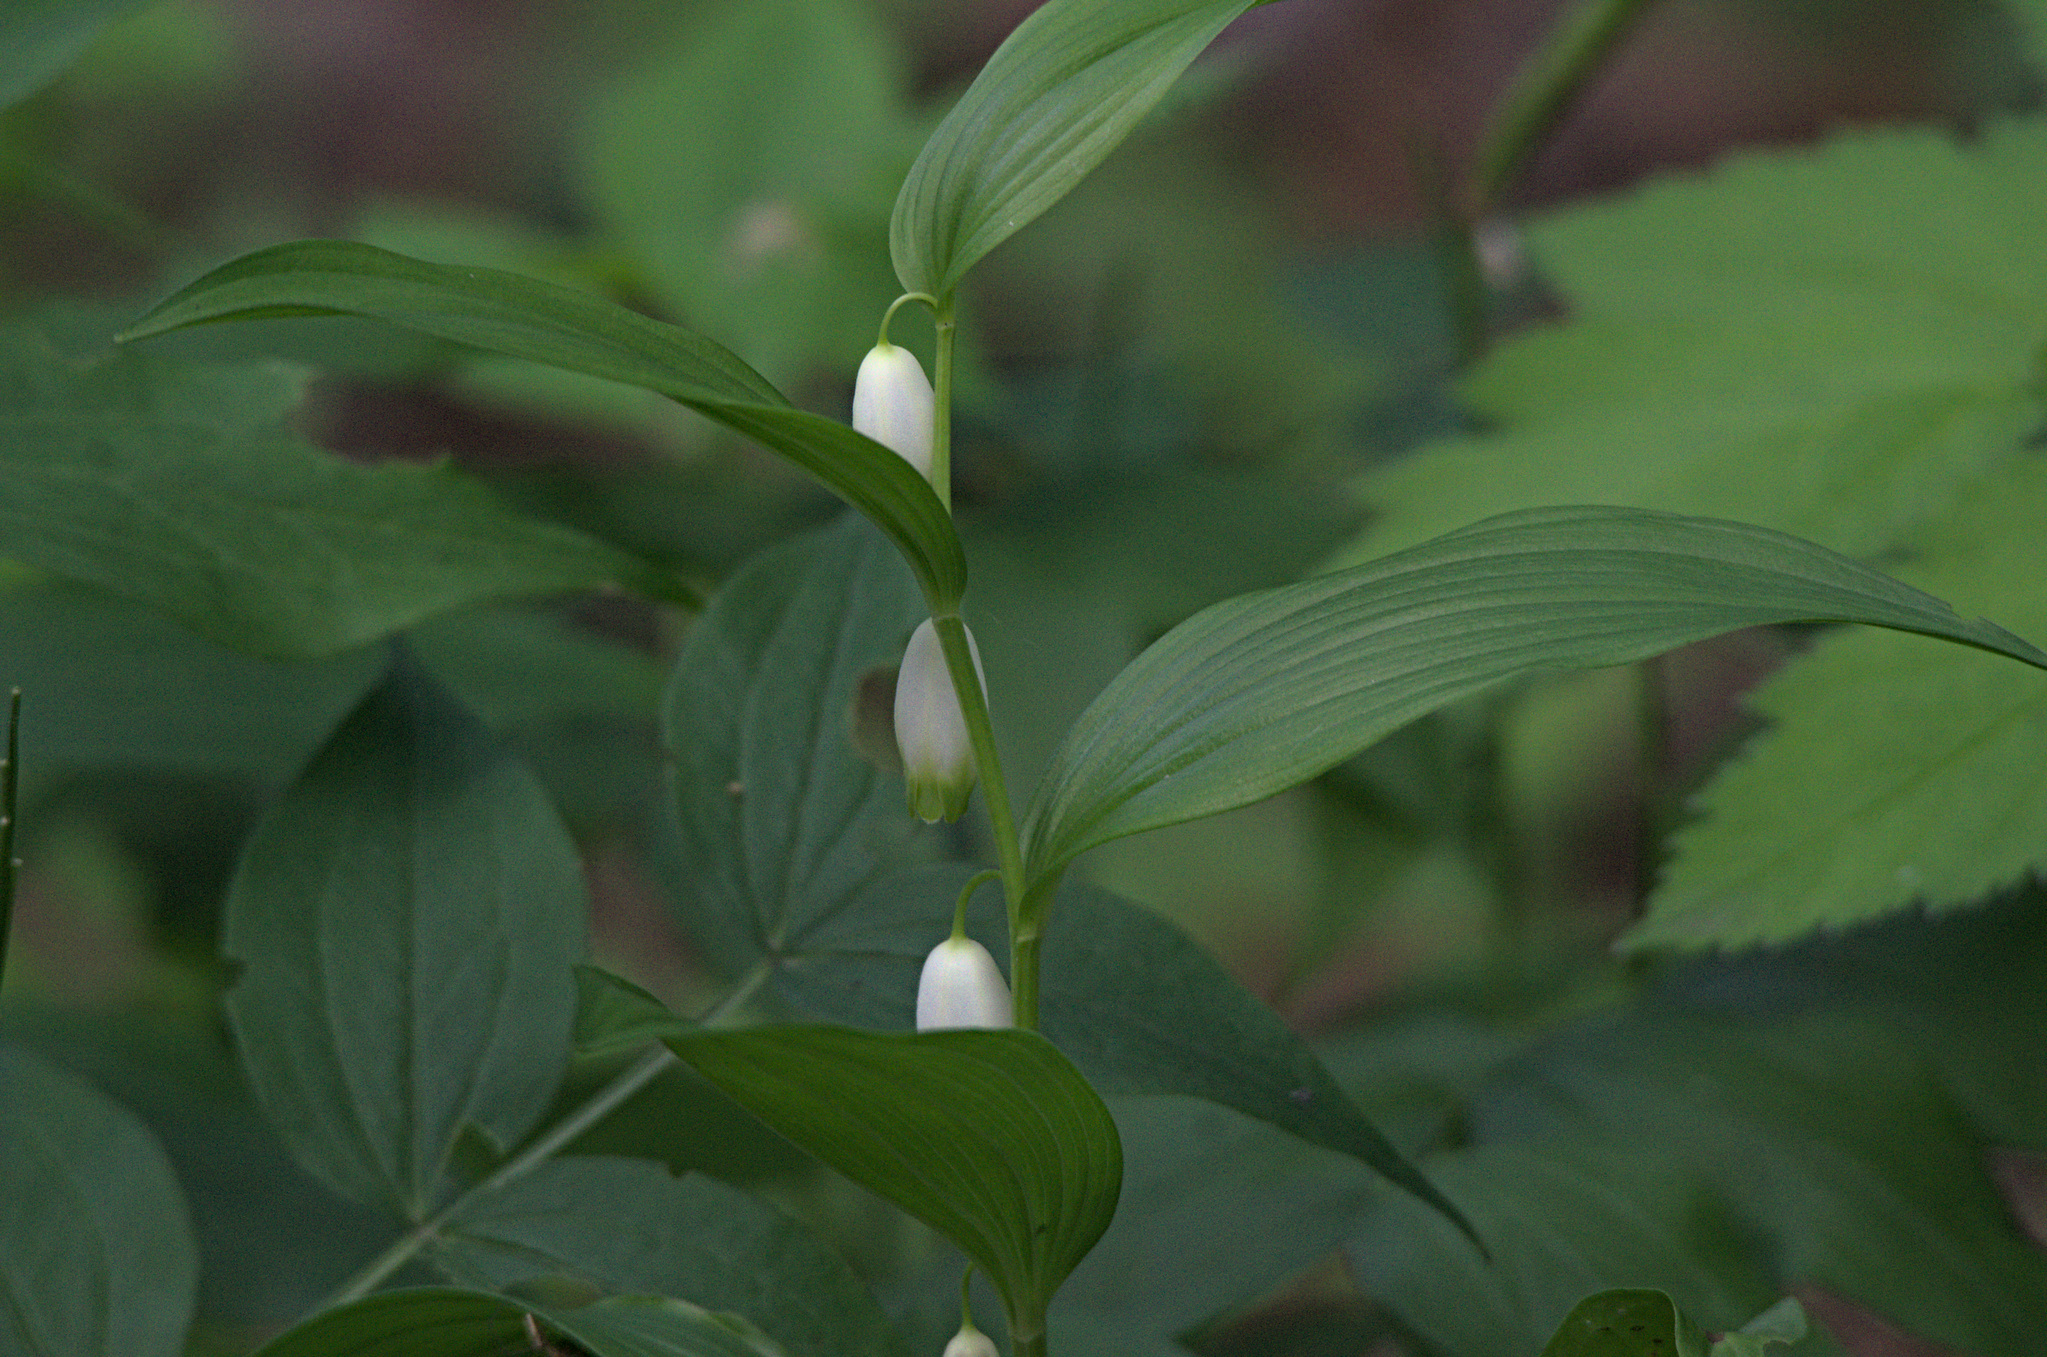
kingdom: Plantae
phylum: Tracheophyta
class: Liliopsida
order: Asparagales
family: Asparagaceae
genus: Polygonatum
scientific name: Polygonatum humile
